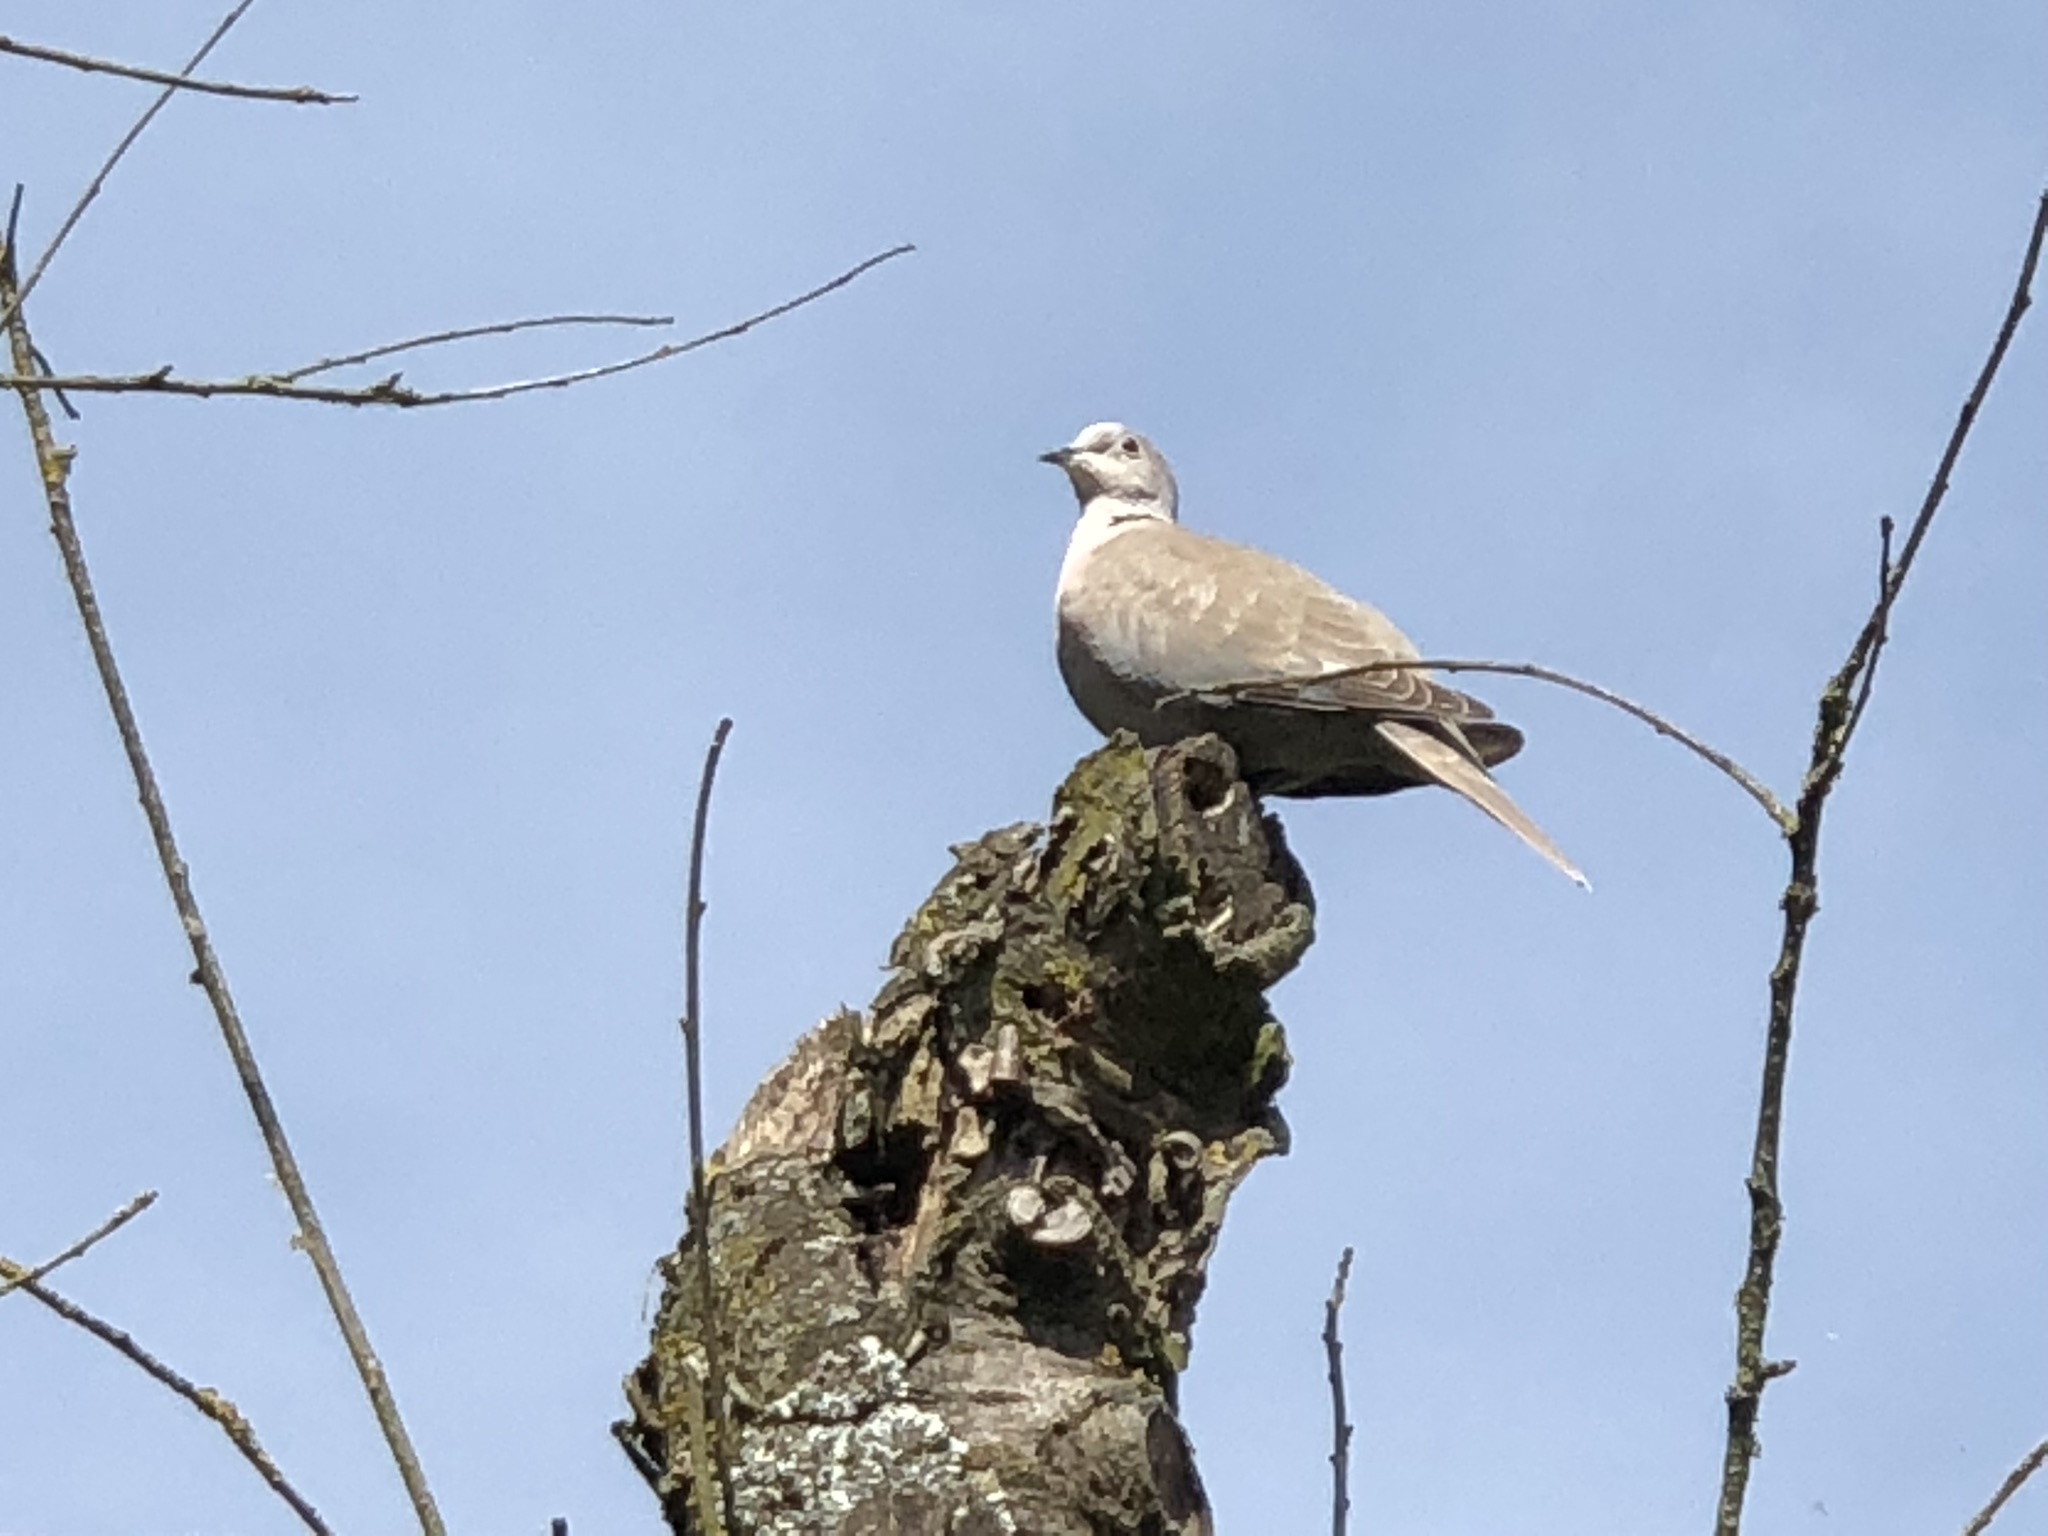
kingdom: Animalia
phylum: Chordata
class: Aves
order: Columbiformes
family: Columbidae
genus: Streptopelia
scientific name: Streptopelia decaocto
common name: Eurasian collared dove
